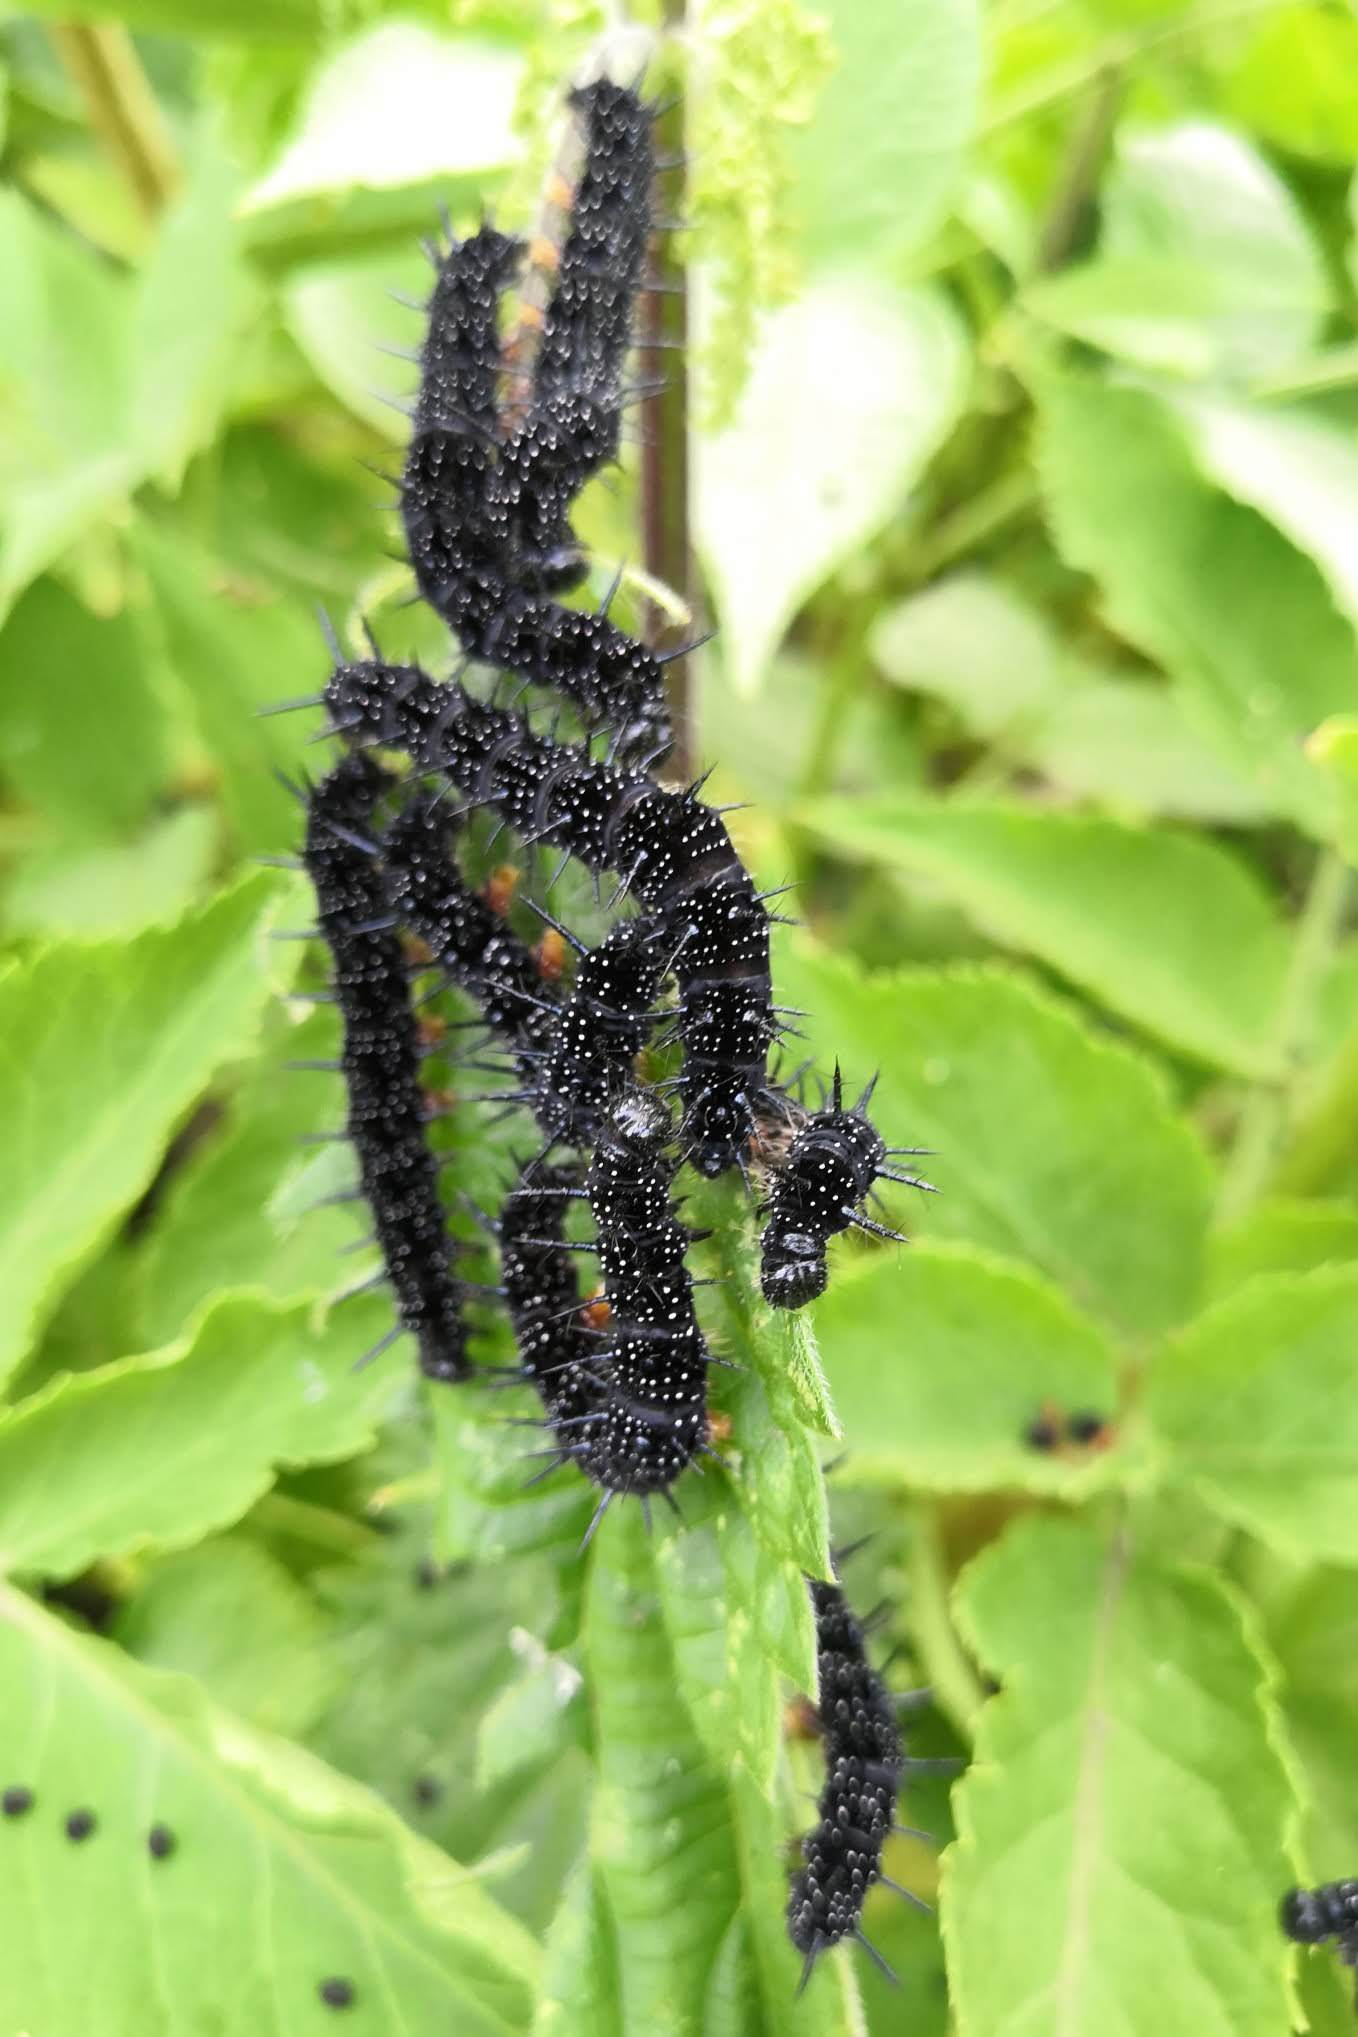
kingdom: Animalia
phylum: Arthropoda
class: Insecta
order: Lepidoptera
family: Nymphalidae
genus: Aglais
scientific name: Aglais io
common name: Peacock
